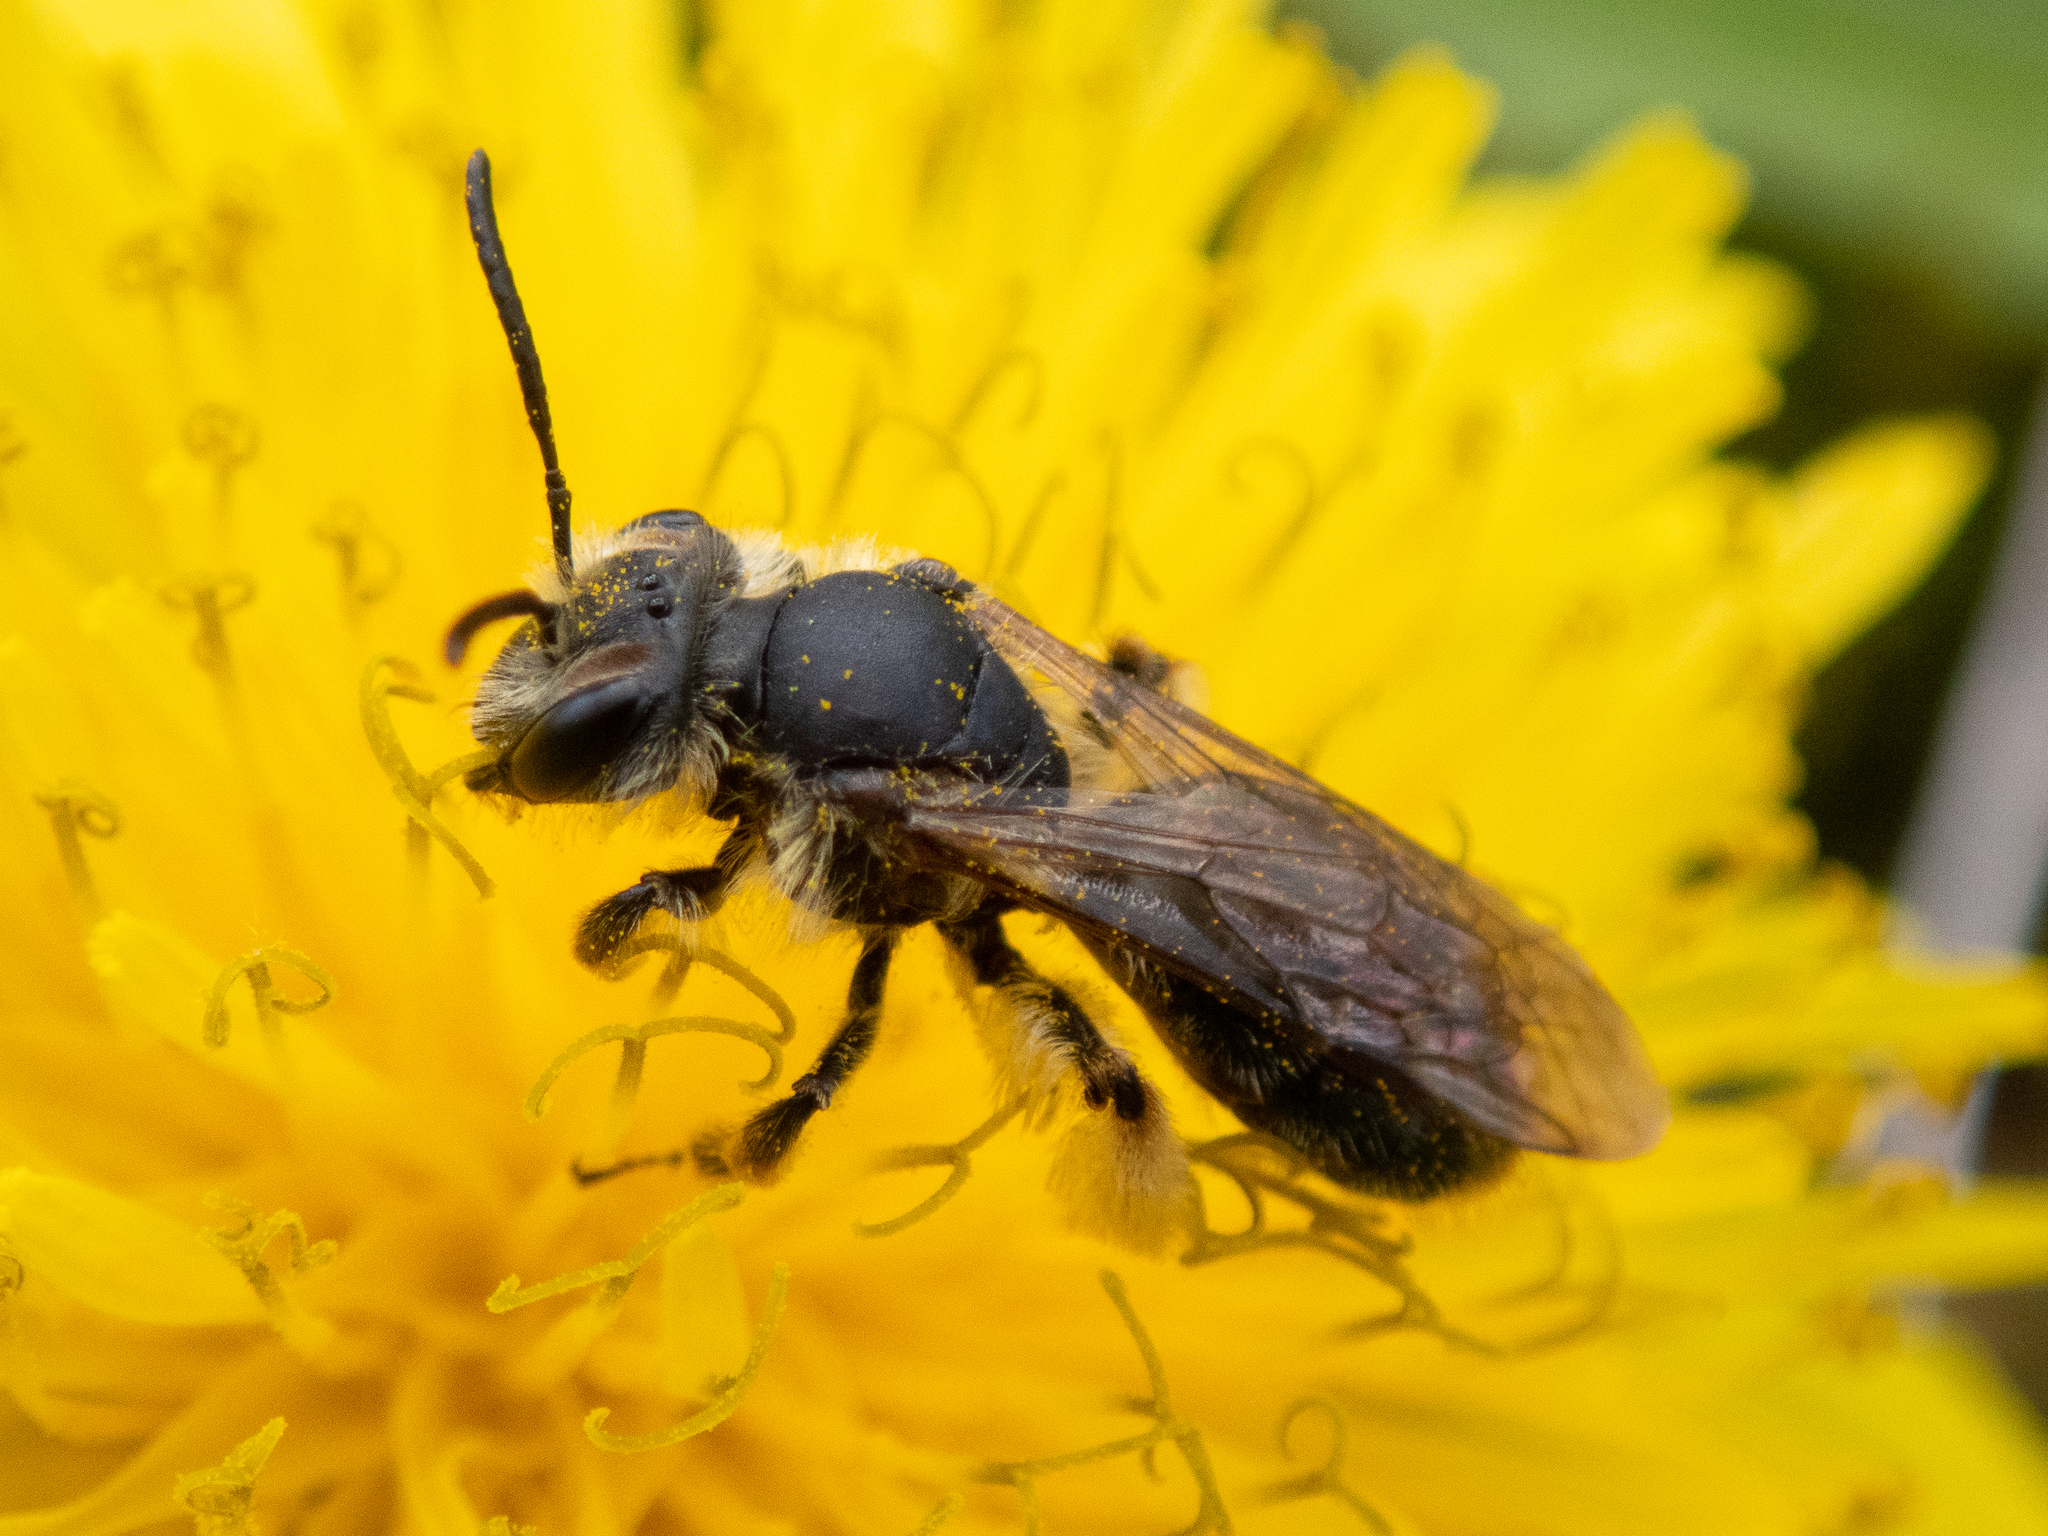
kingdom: Animalia
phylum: Arthropoda
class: Insecta
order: Hymenoptera
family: Andrenidae
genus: Andrena
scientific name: Andrena tridens
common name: Trident miner bee
